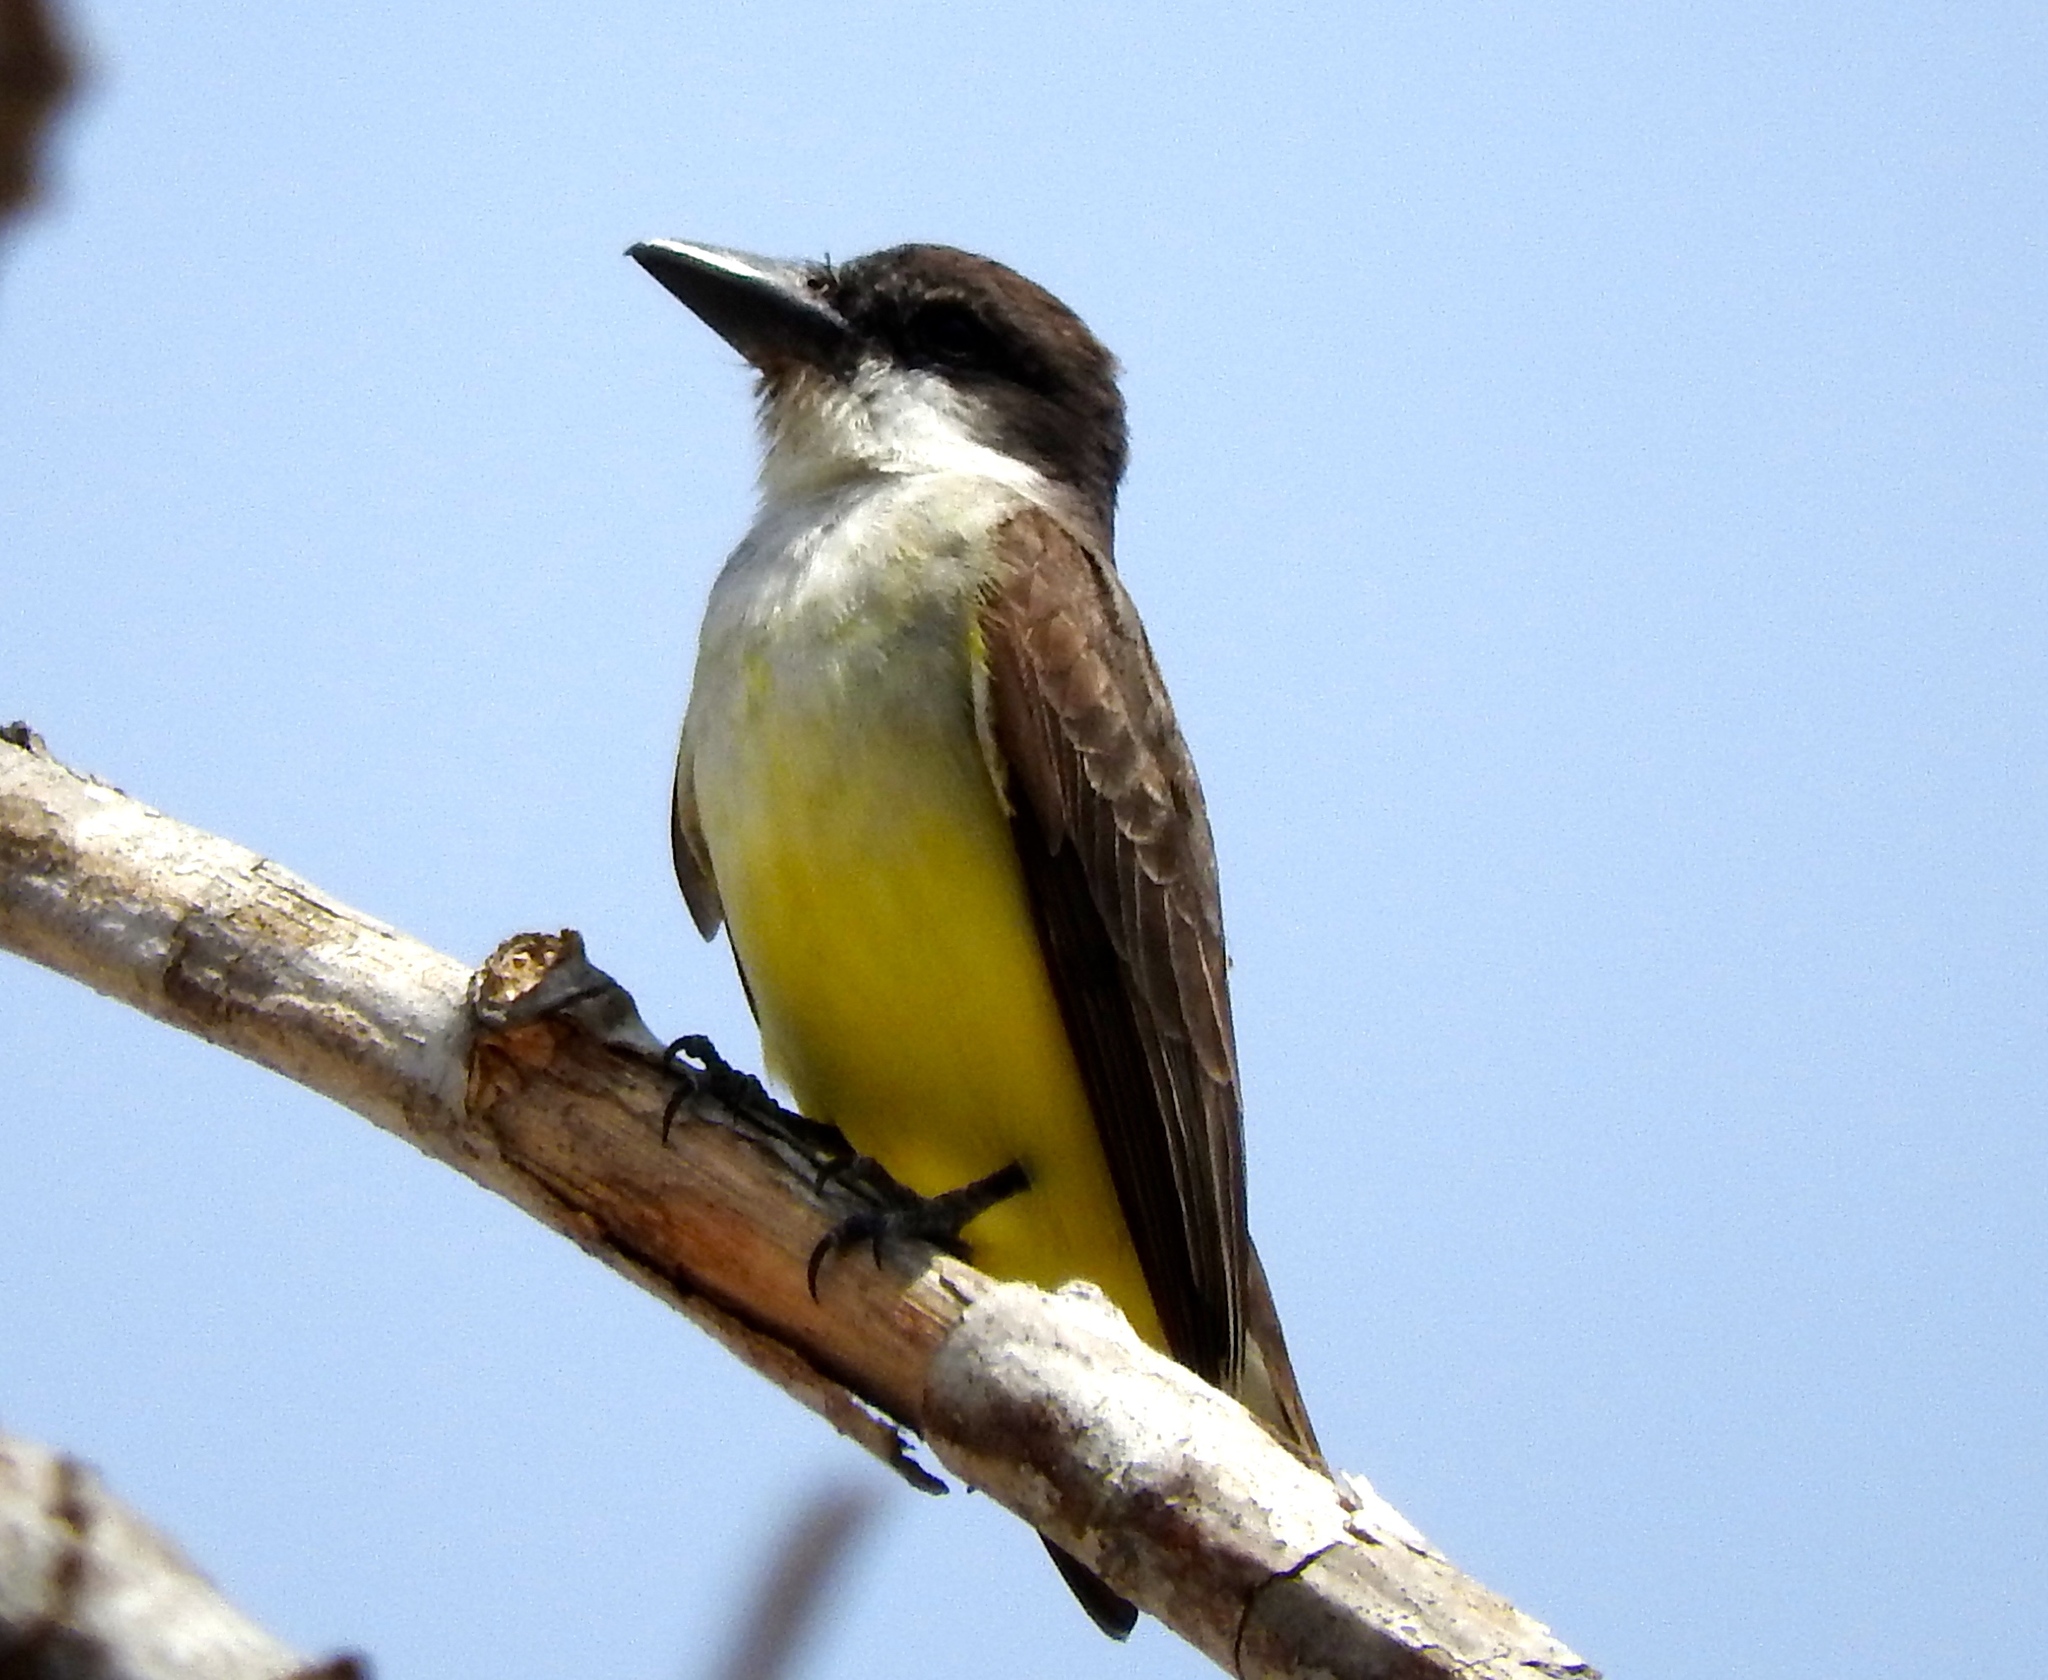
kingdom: Animalia
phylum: Chordata
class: Aves
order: Passeriformes
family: Tyrannidae
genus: Tyrannus
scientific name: Tyrannus crassirostris
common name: Thick-billed kingbird
